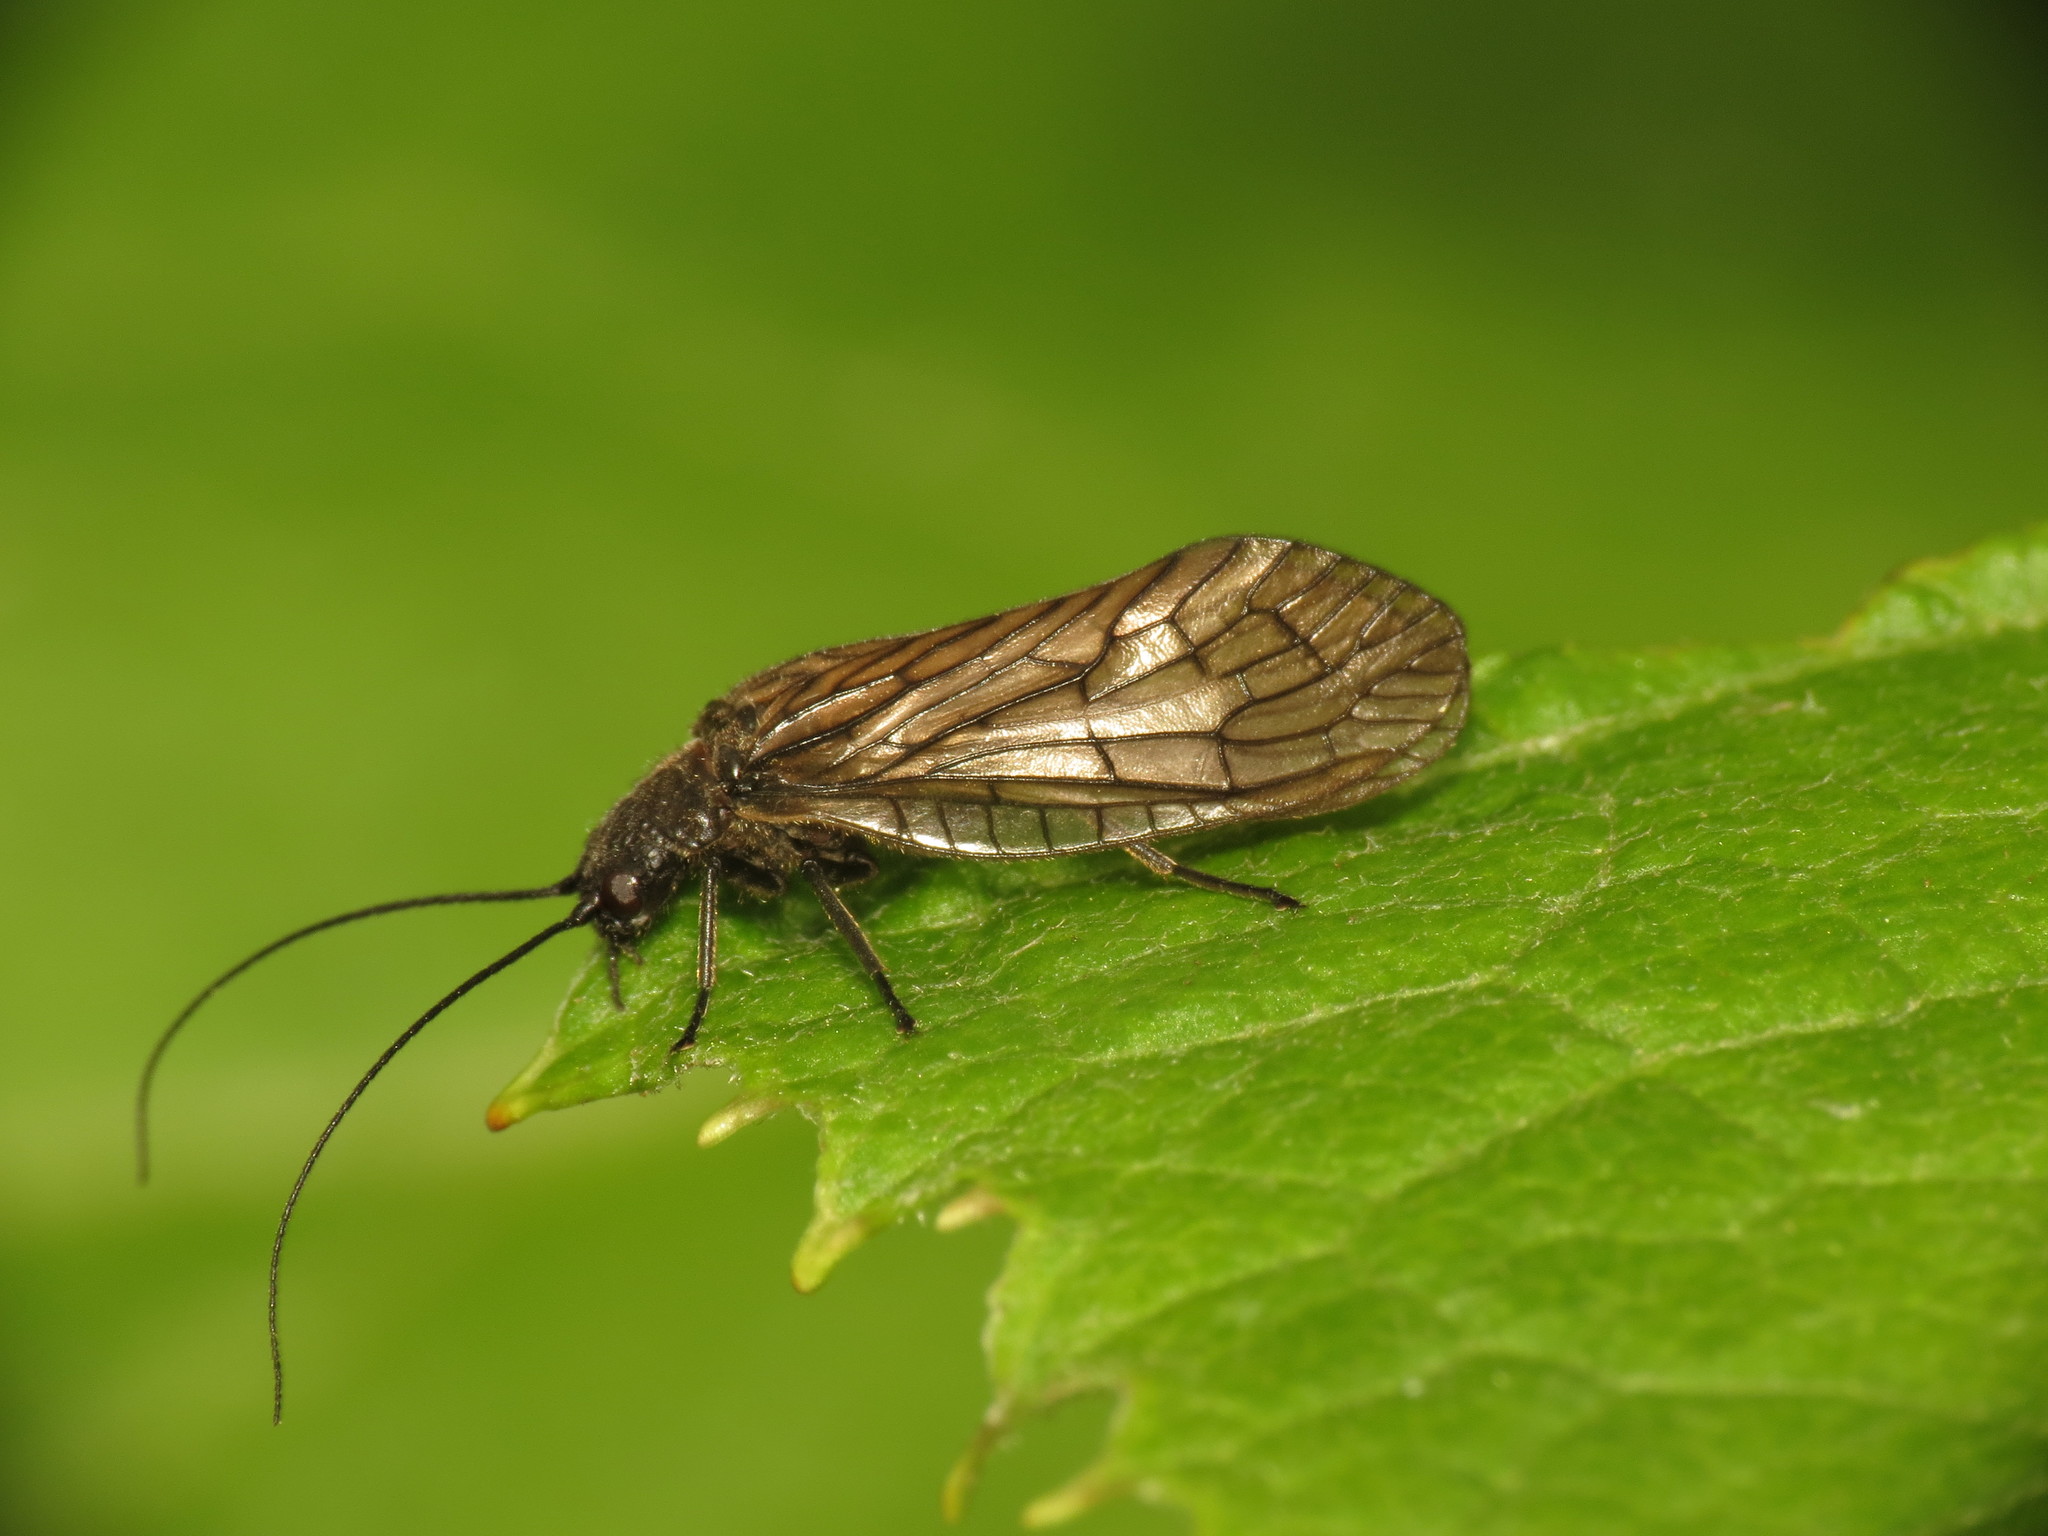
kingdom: Animalia
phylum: Arthropoda
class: Insecta
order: Megaloptera
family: Sialidae
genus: Sialis
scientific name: Sialis
